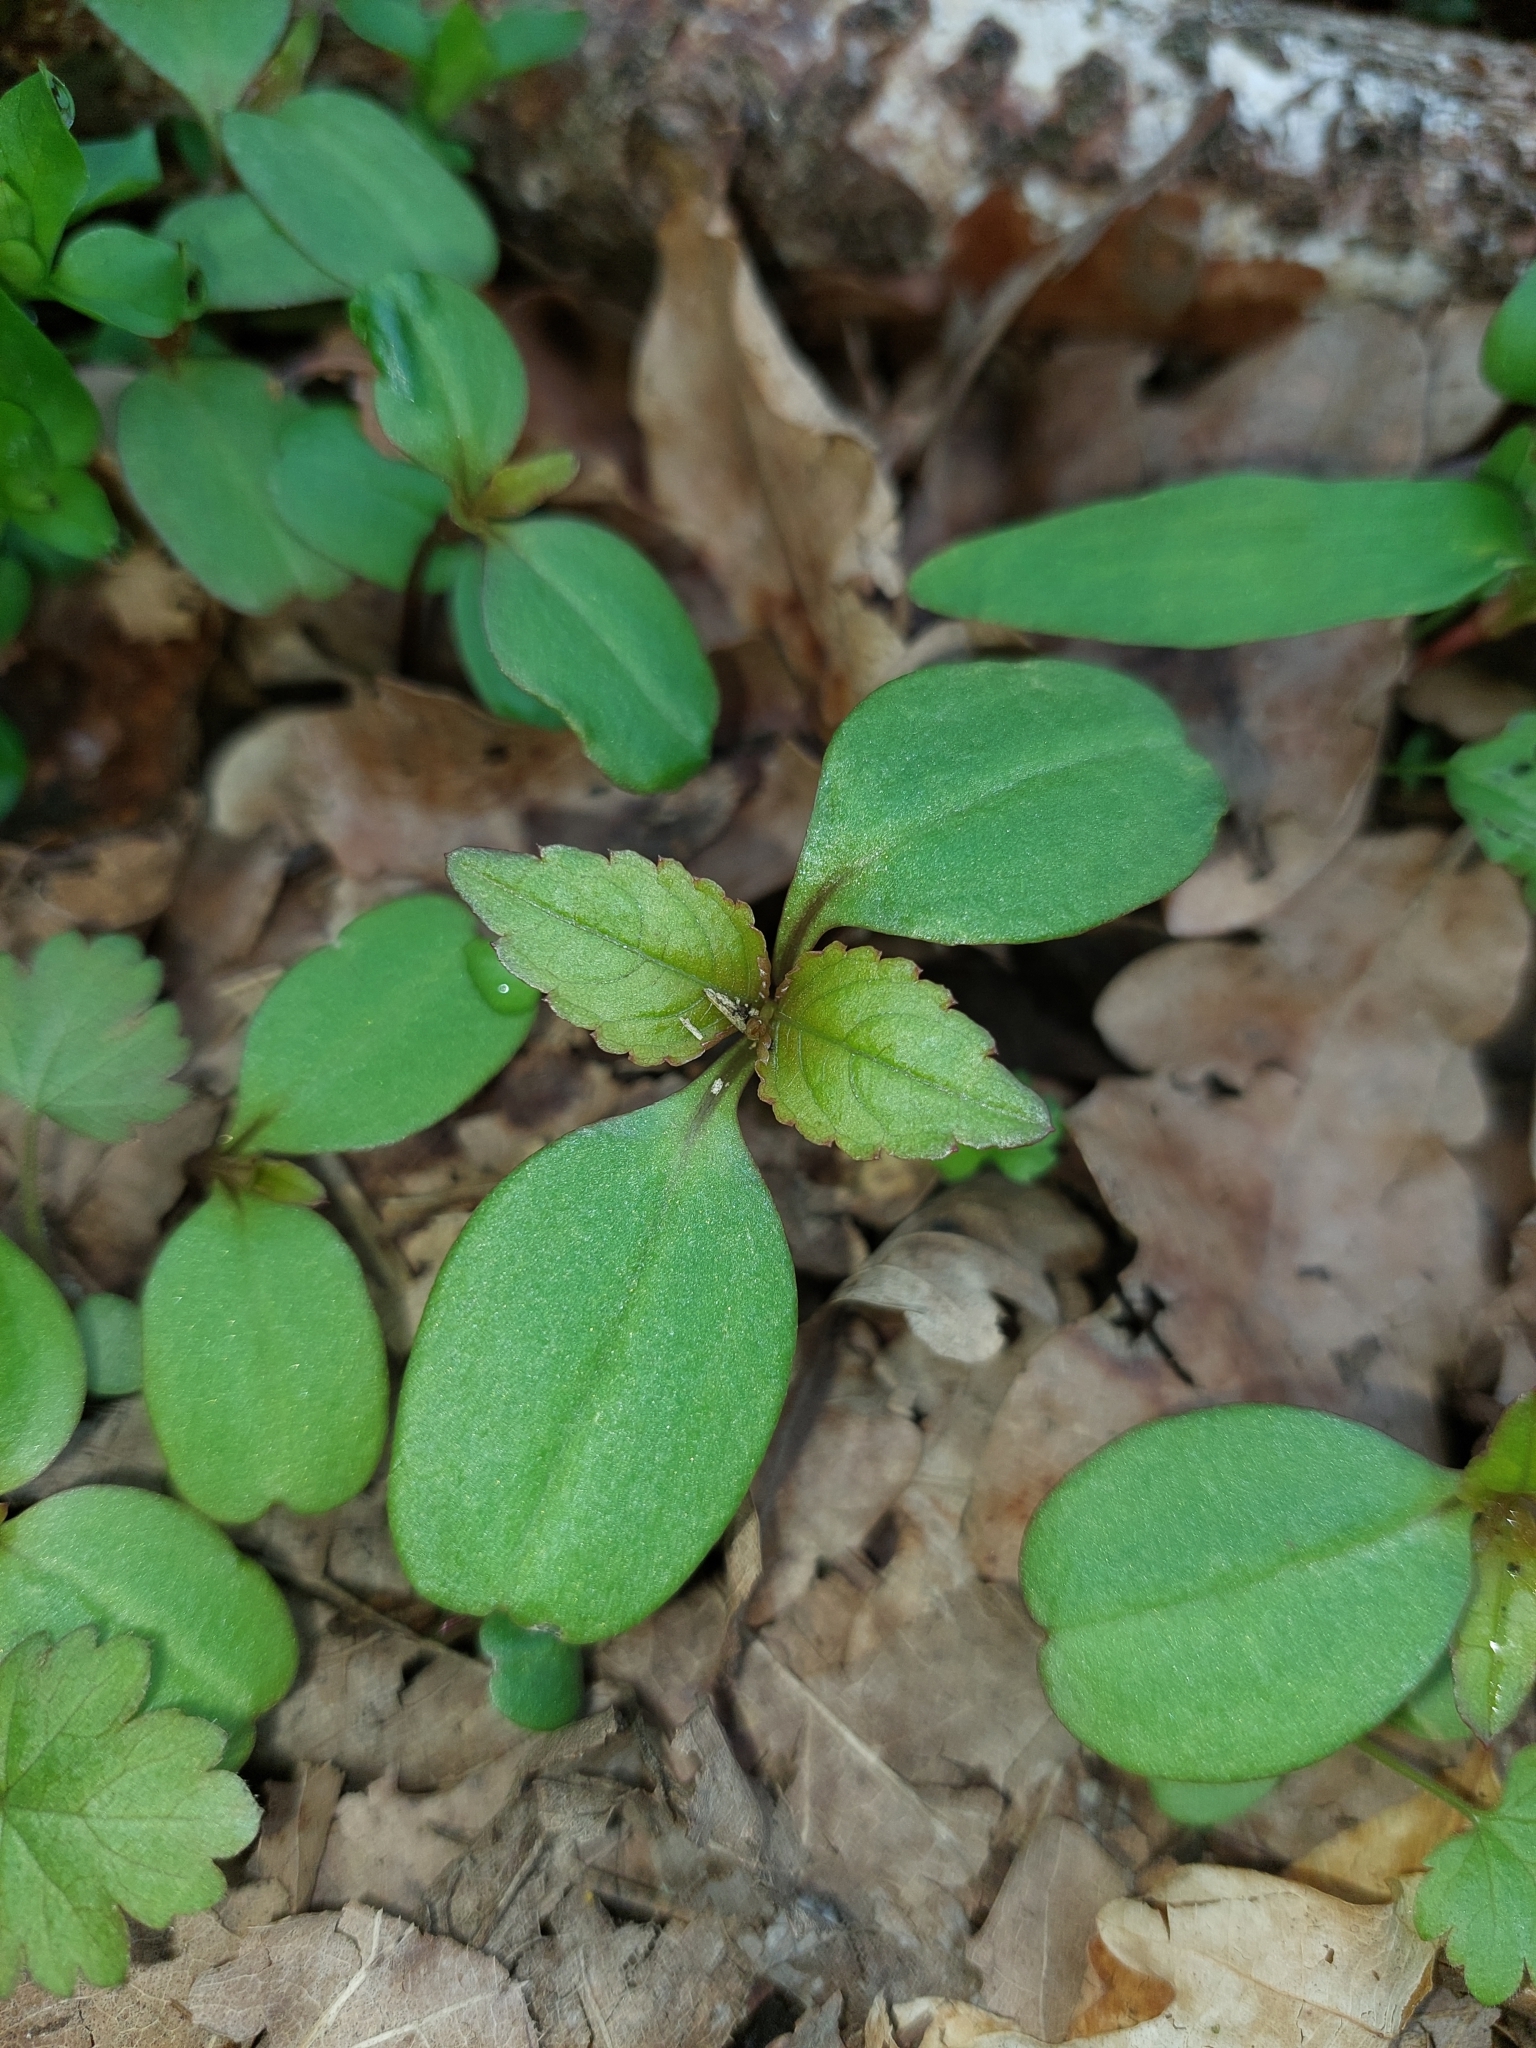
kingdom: Plantae
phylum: Tracheophyta
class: Magnoliopsida
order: Ericales
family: Balsaminaceae
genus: Impatiens
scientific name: Impatiens parviflora
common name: Small balsam
